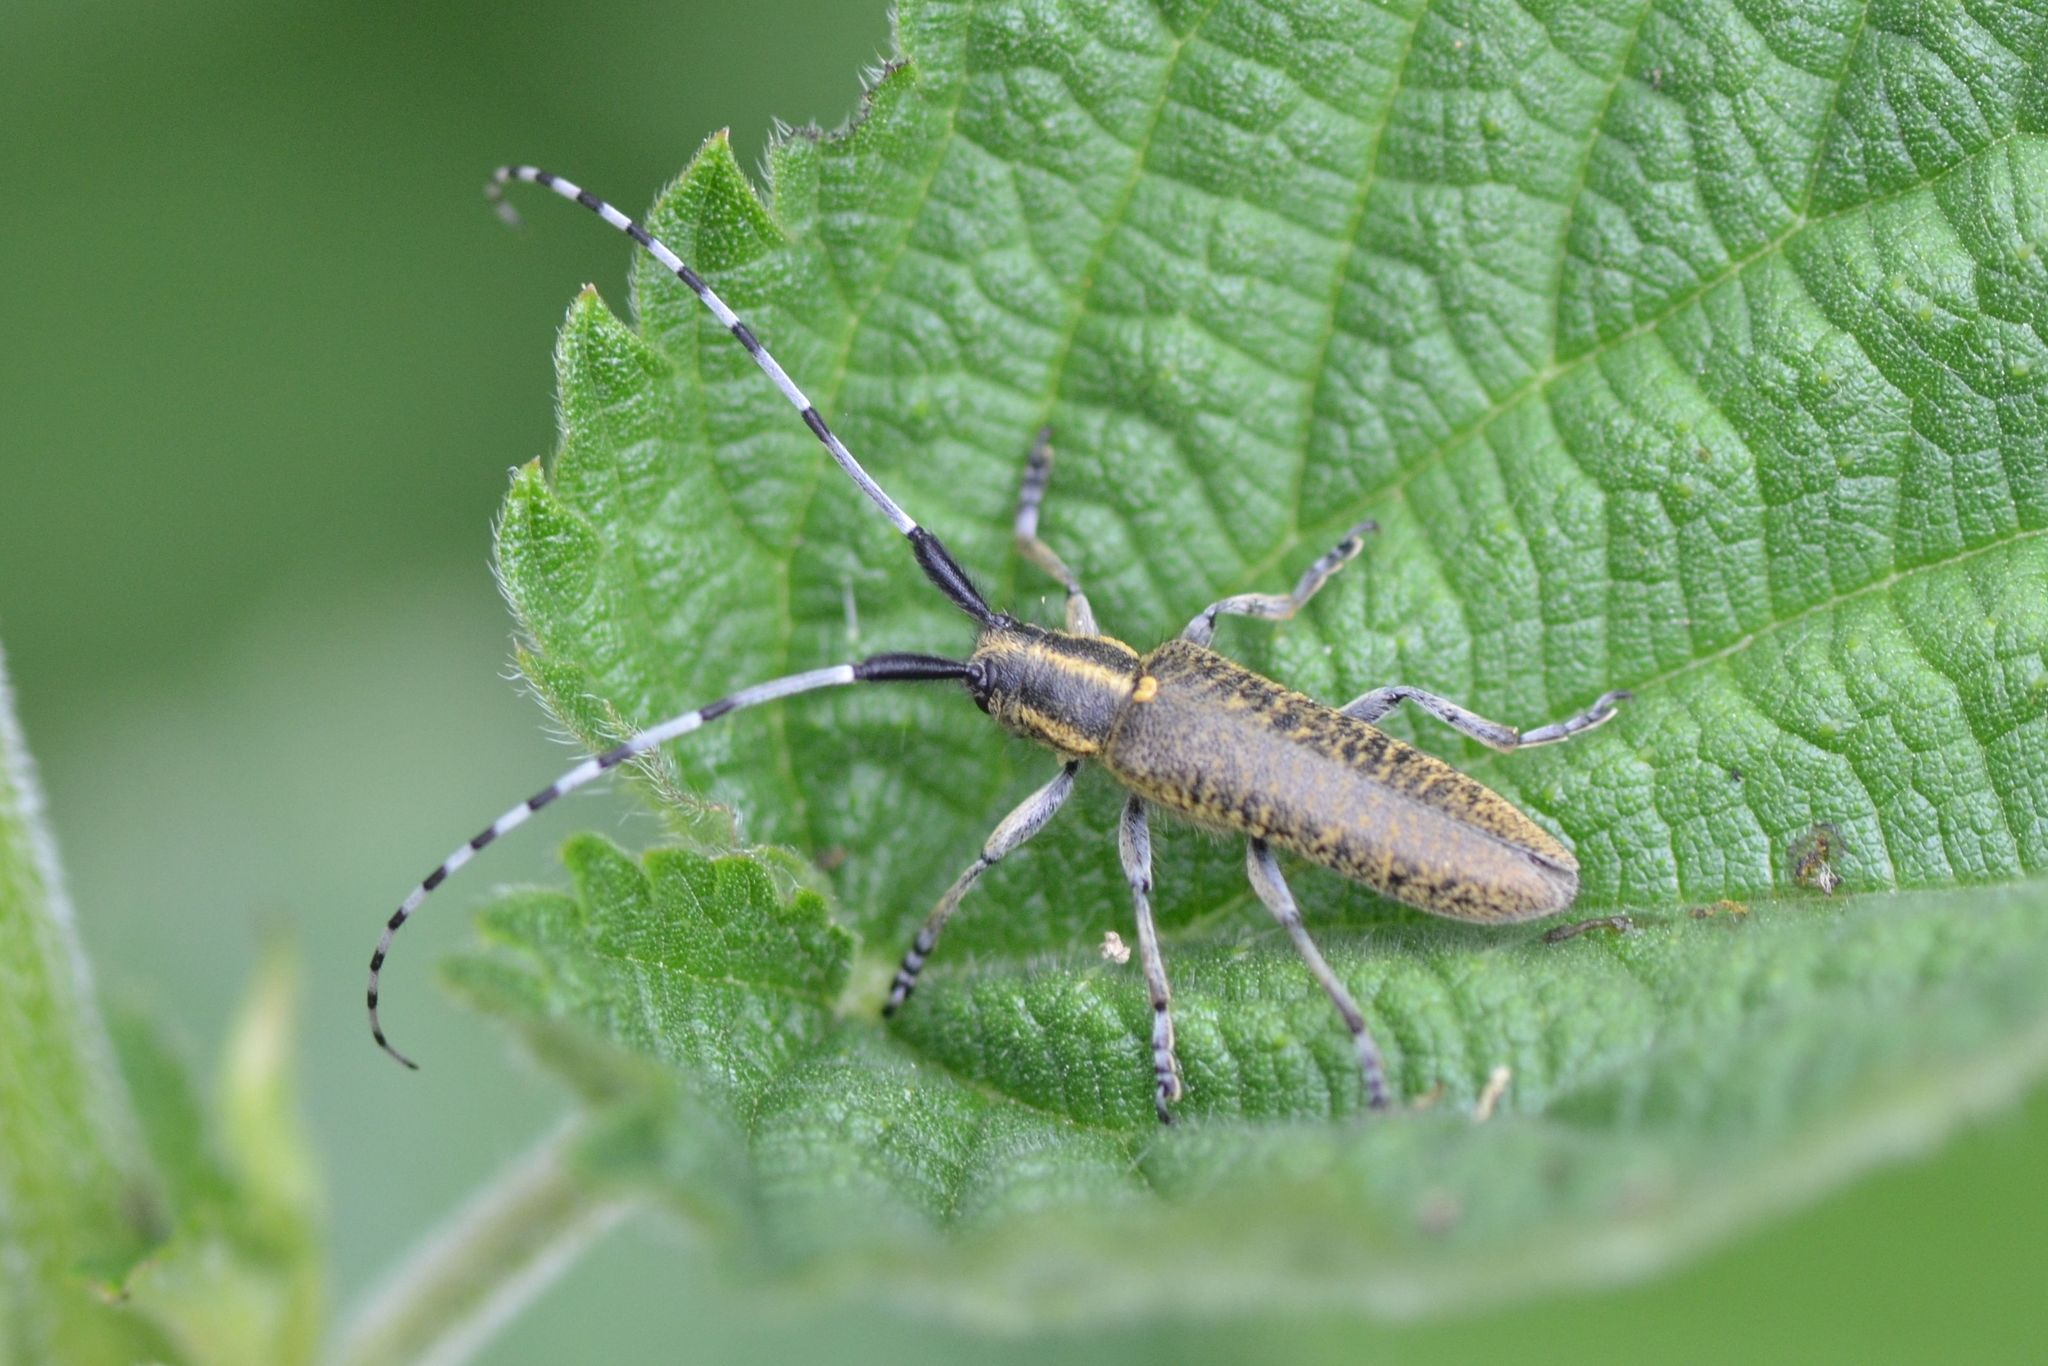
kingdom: Animalia
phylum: Arthropoda
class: Insecta
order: Coleoptera
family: Cerambycidae
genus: Agapanthia
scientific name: Agapanthia villosoviridescens
